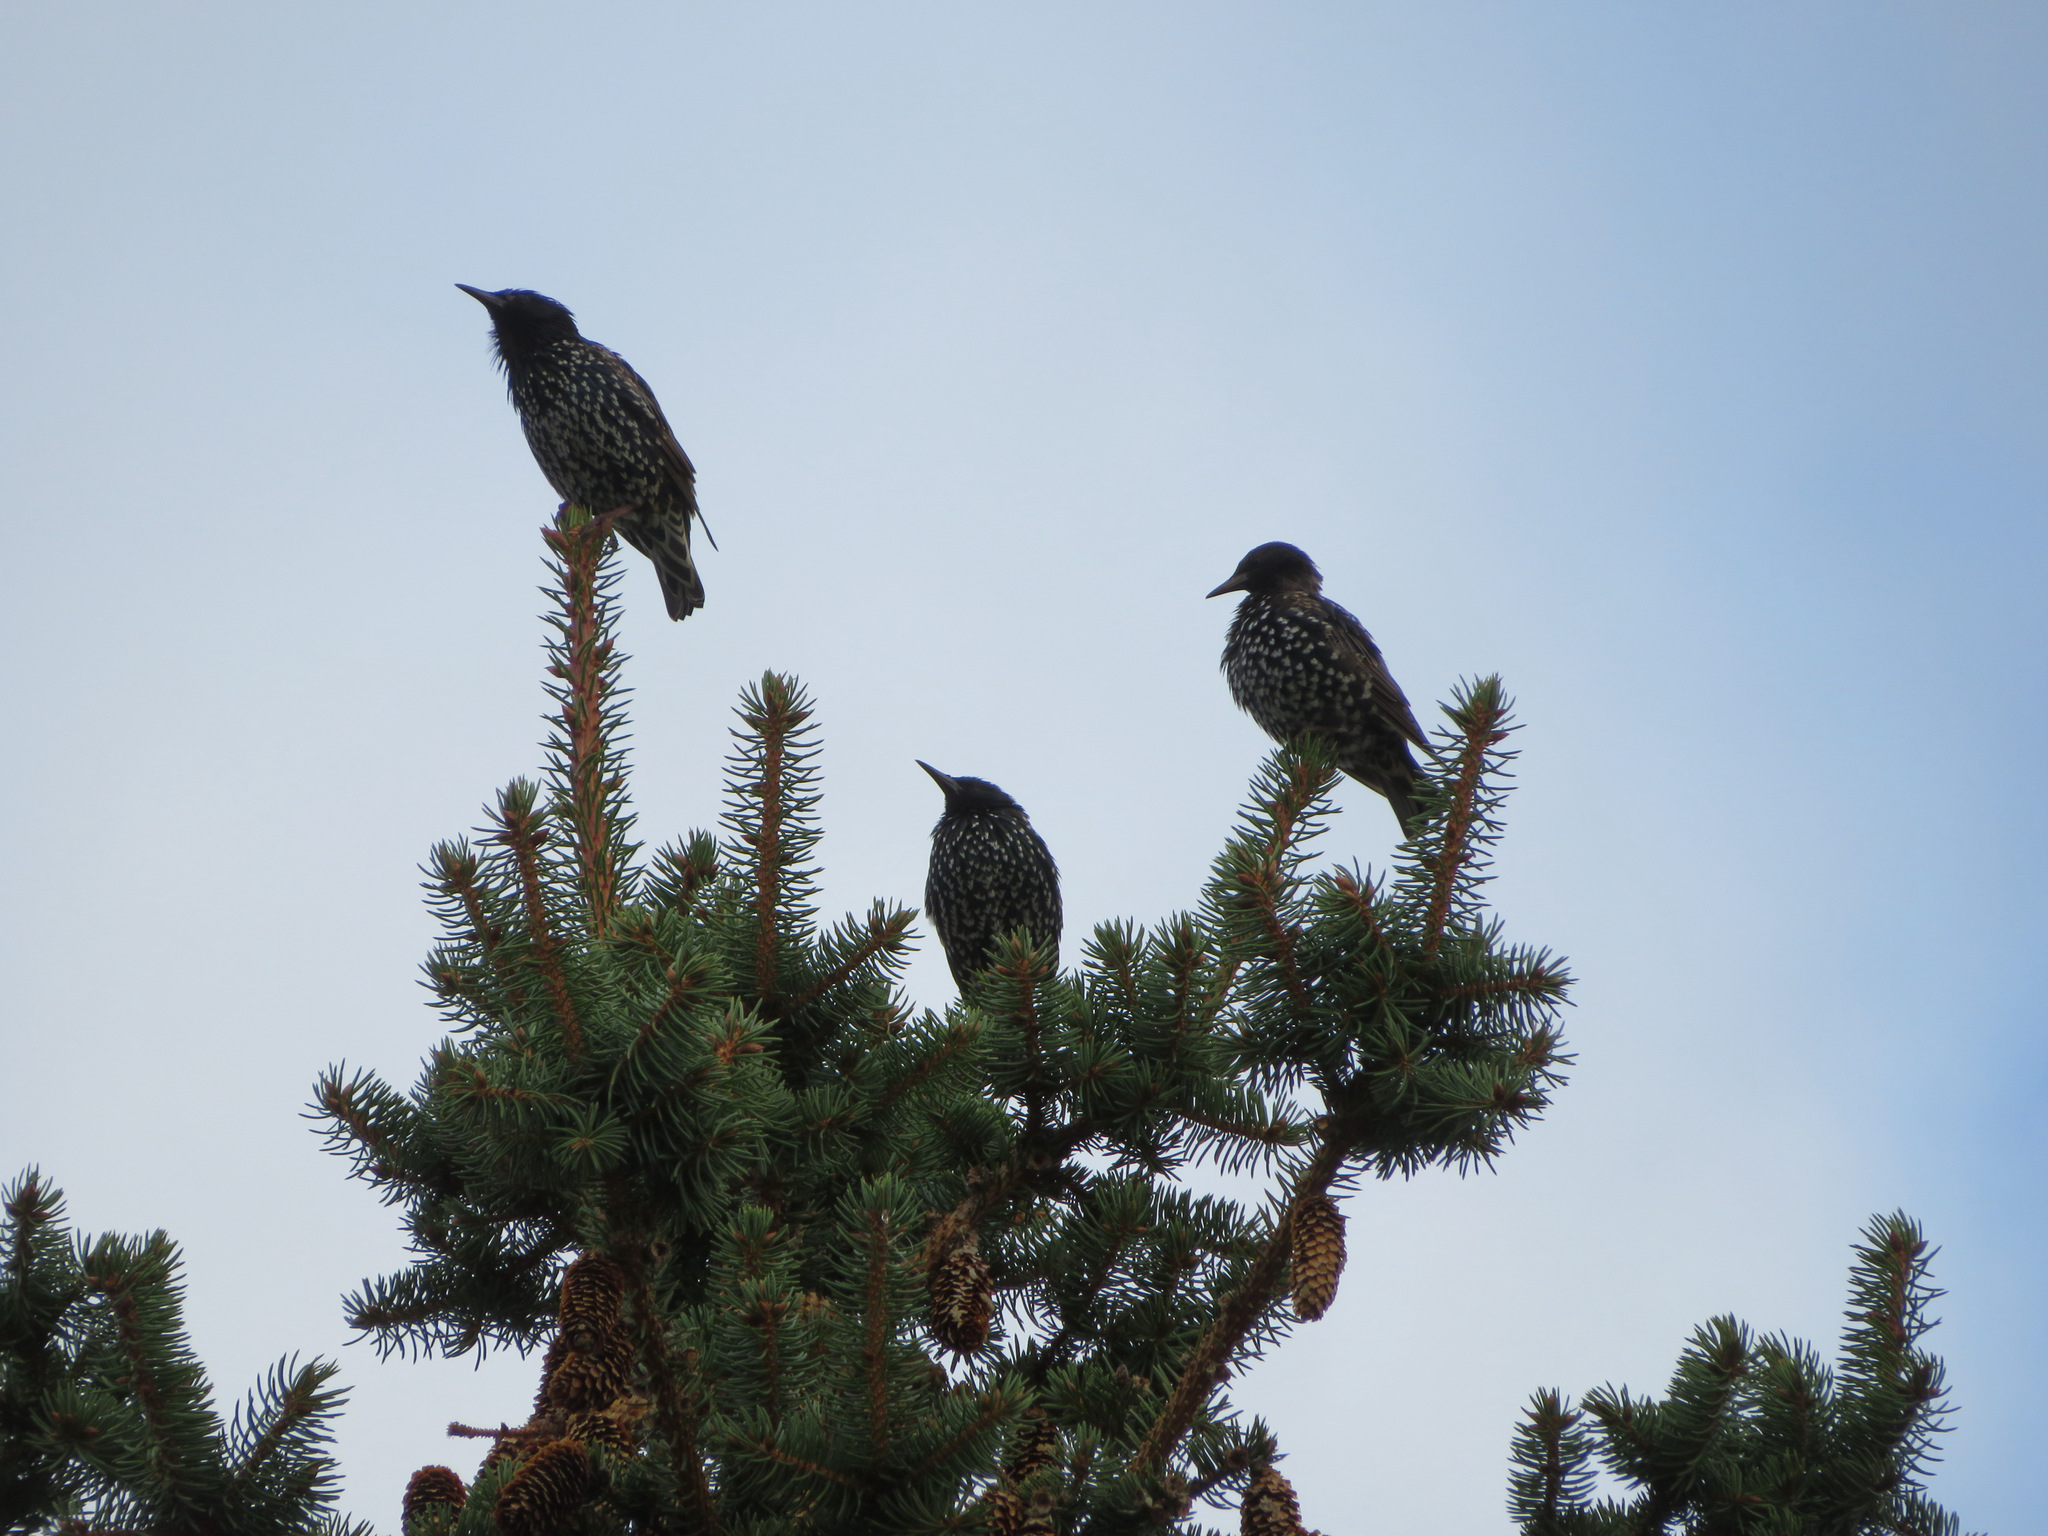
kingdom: Animalia
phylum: Chordata
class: Aves
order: Passeriformes
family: Sturnidae
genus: Sturnus
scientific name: Sturnus vulgaris
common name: Common starling
